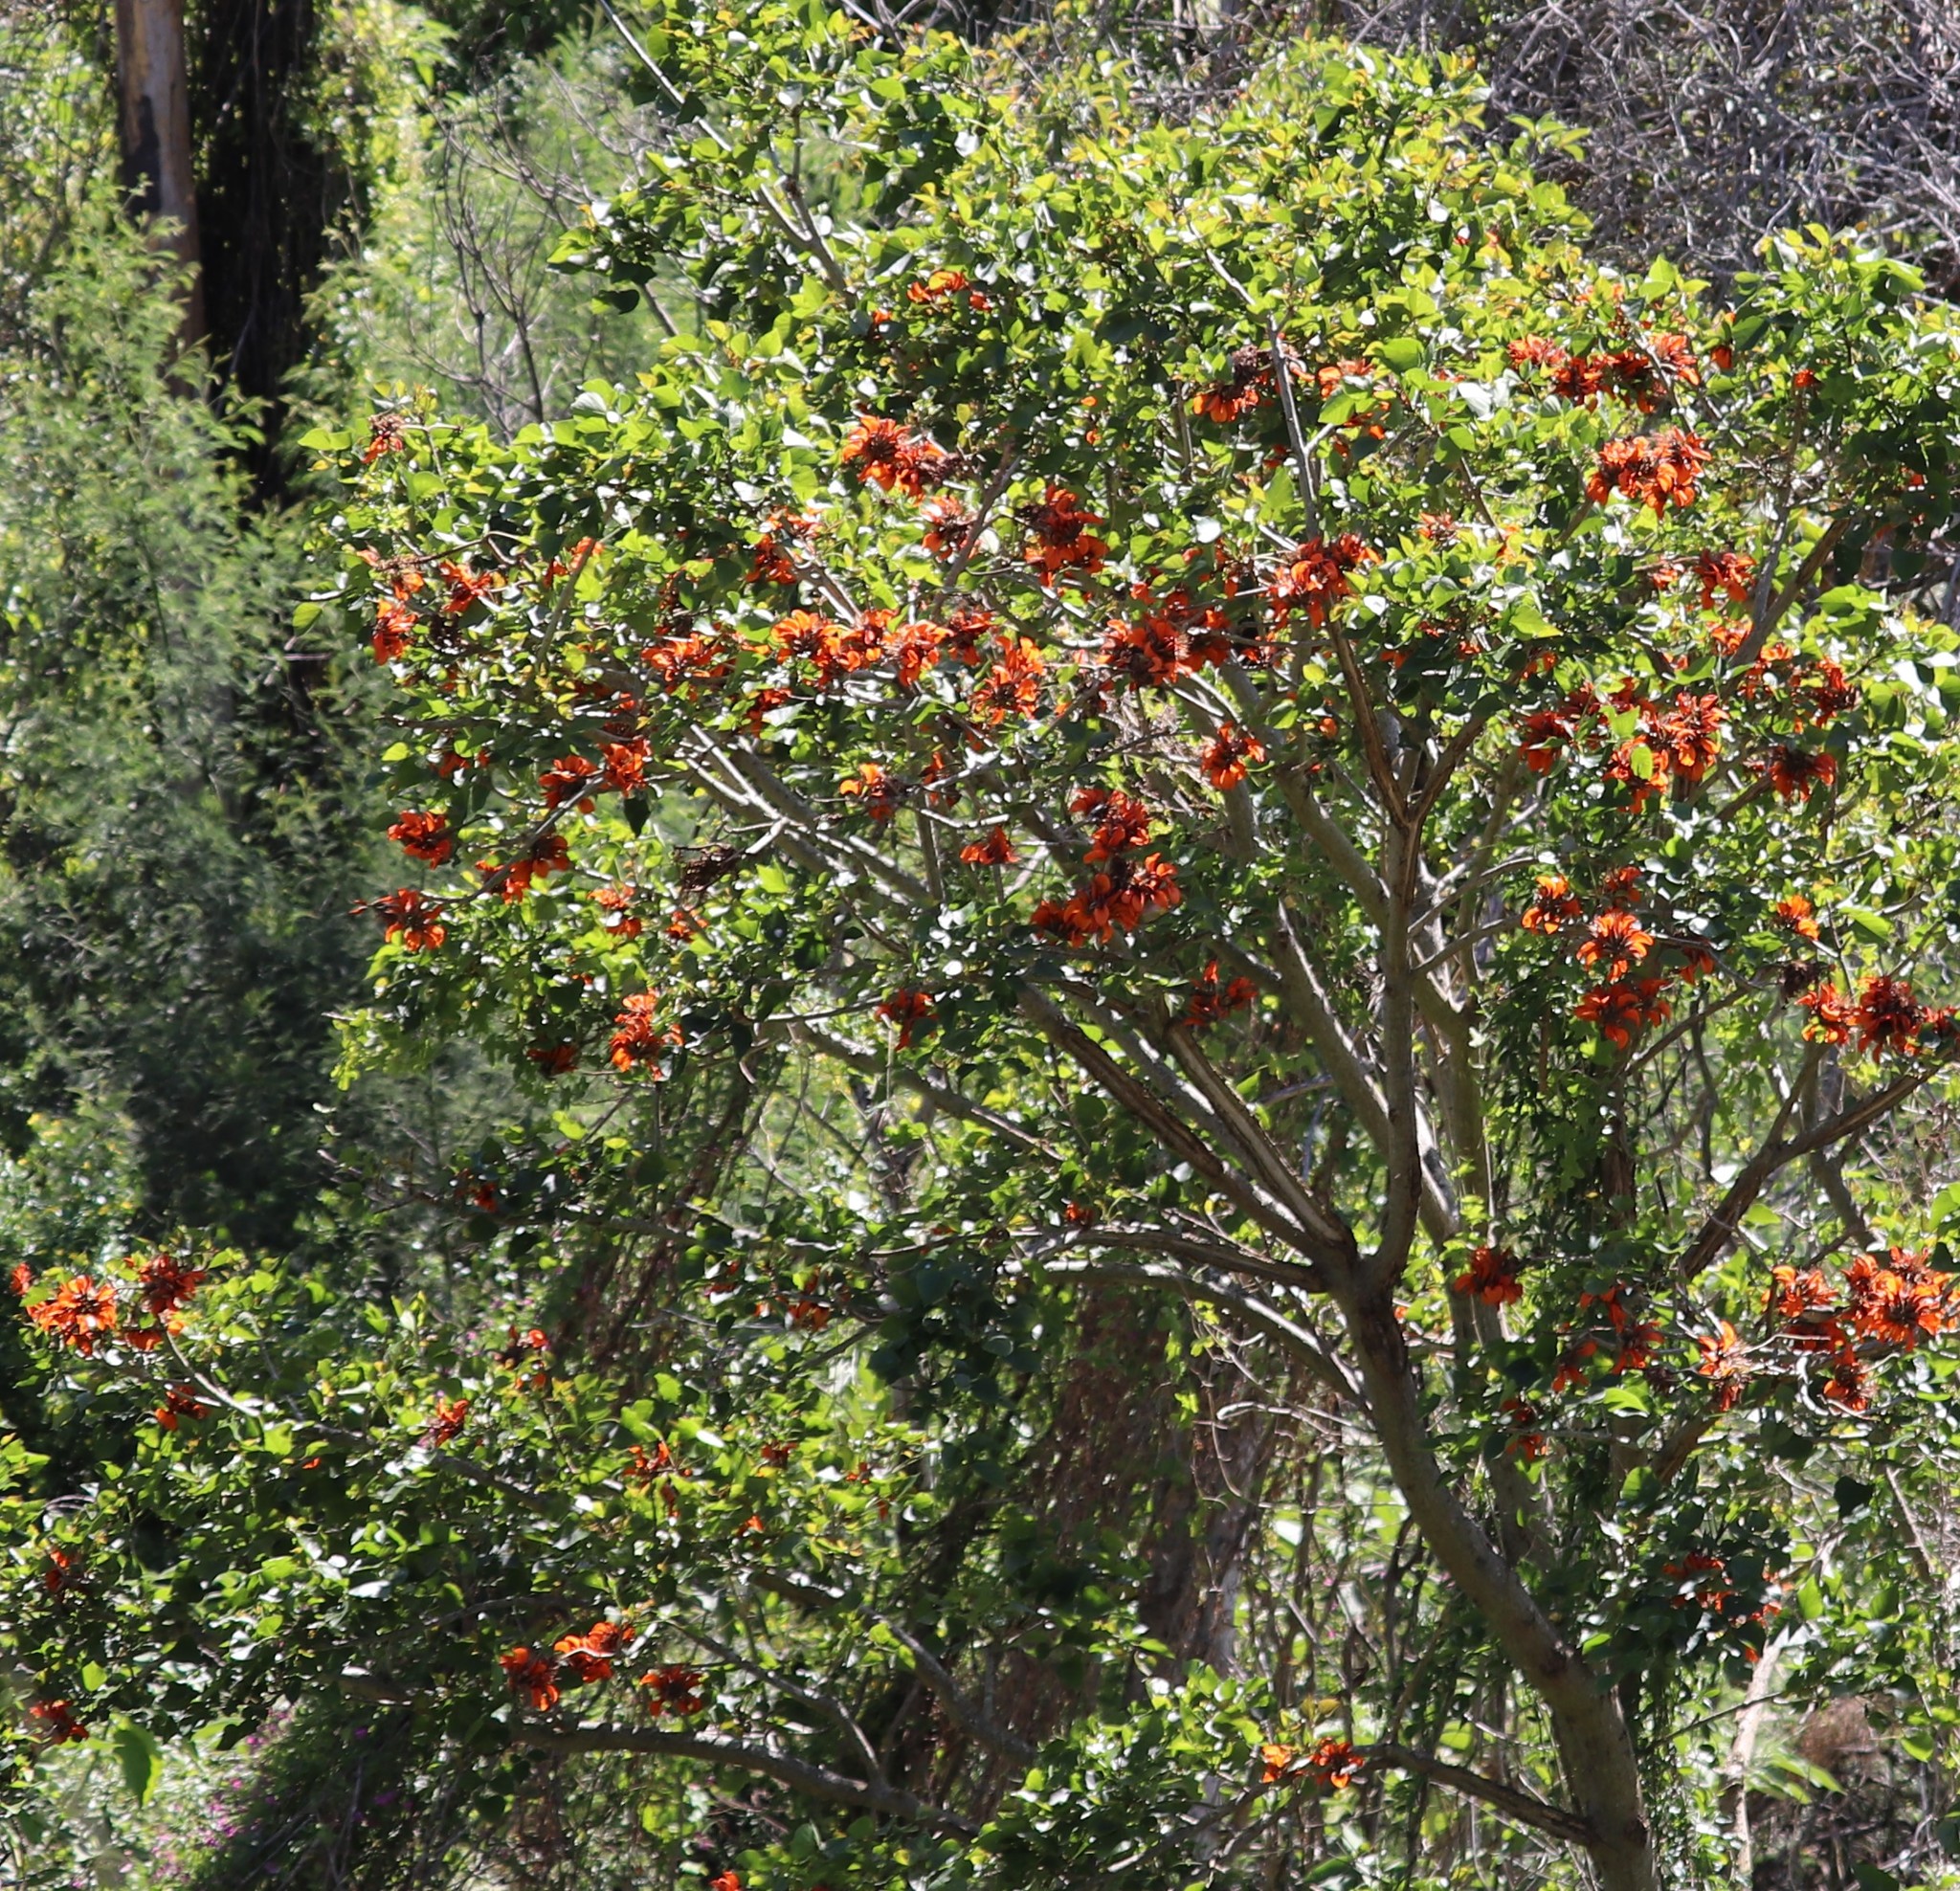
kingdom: Plantae
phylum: Tracheophyta
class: Magnoliopsida
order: Fabales
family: Fabaceae
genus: Erythrina
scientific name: Erythrina caffra
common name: Coast coral tree
